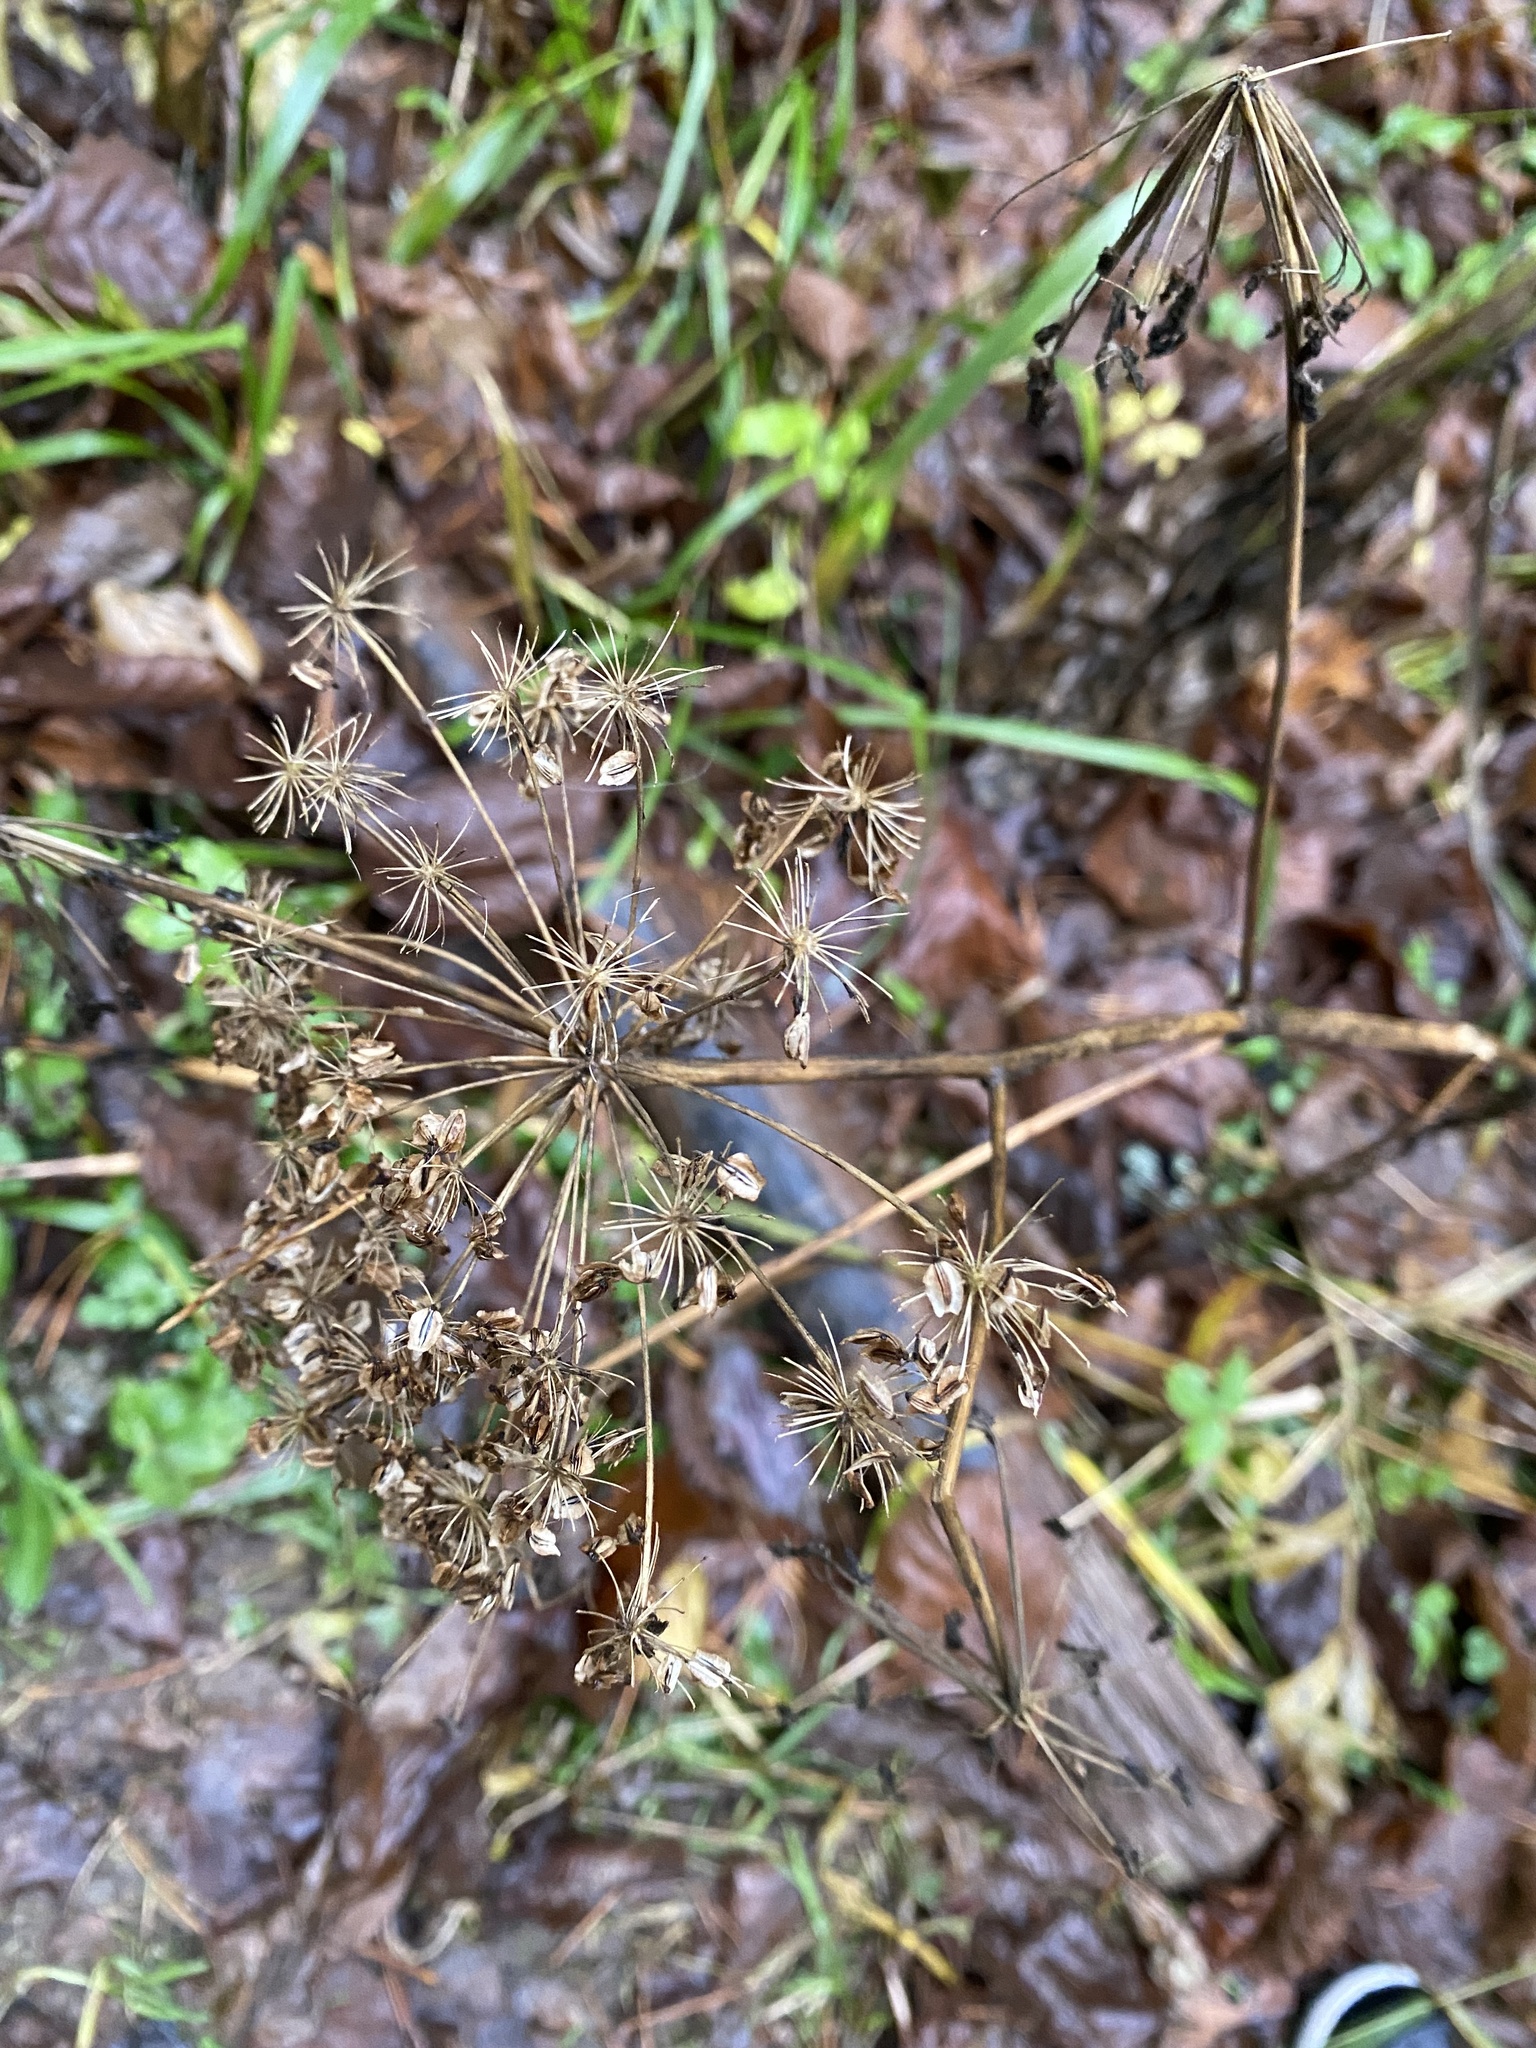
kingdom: Plantae
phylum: Tracheophyta
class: Magnoliopsida
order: Apiales
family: Apiaceae
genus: Angelica
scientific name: Angelica sylvestris
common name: Wild angelica
